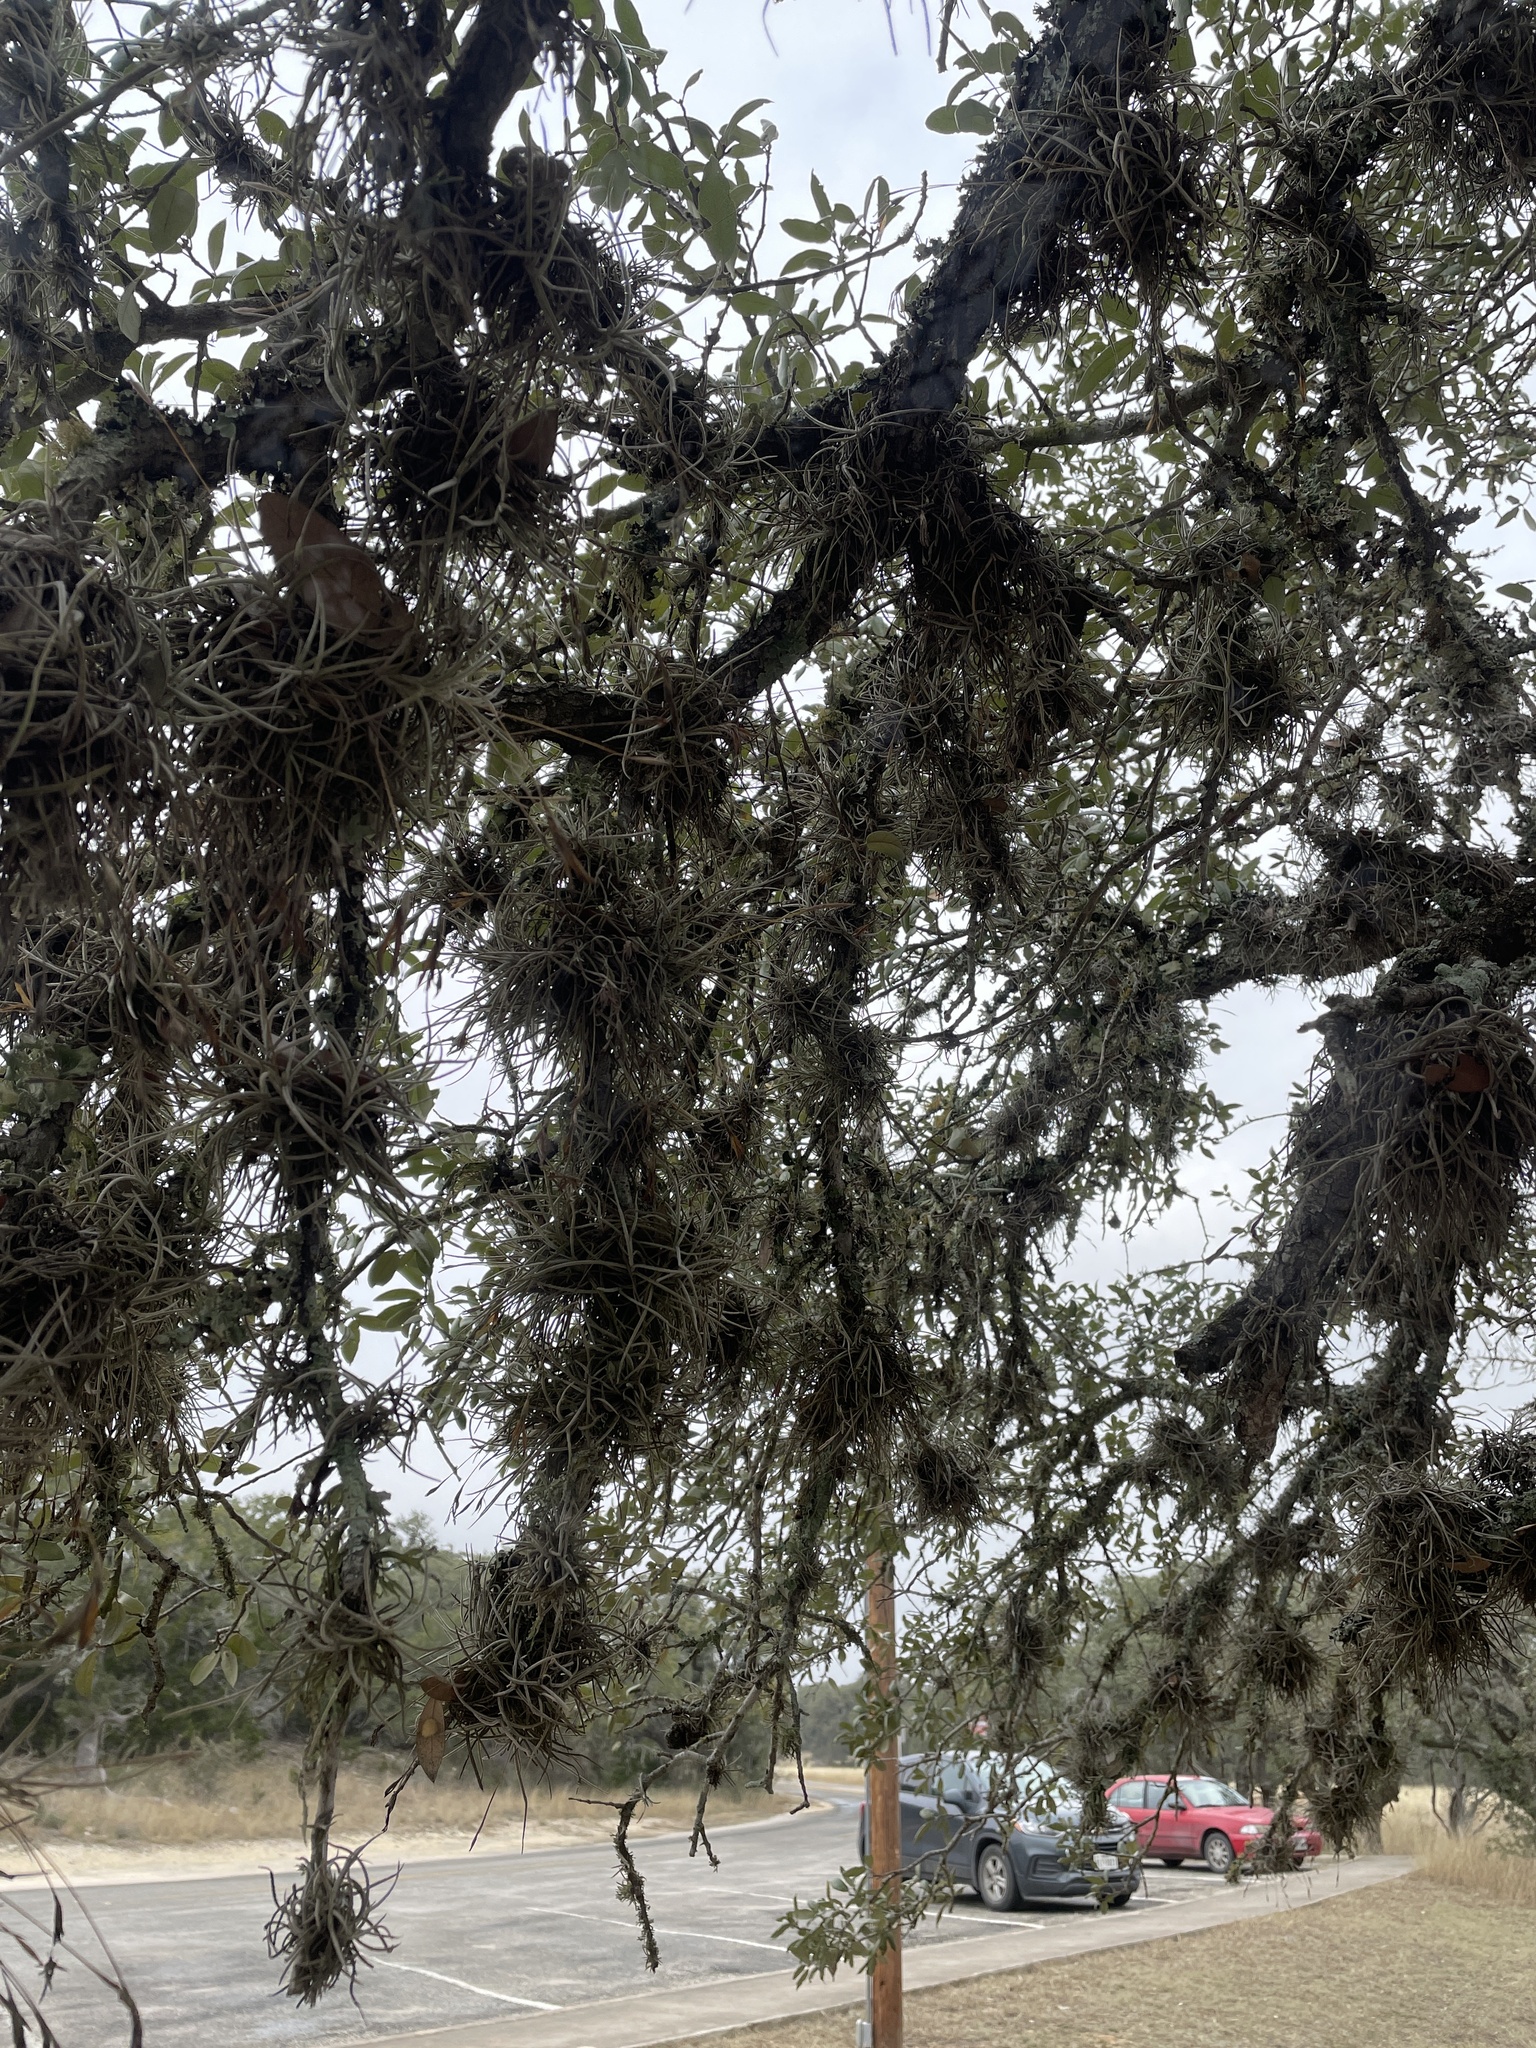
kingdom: Plantae
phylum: Tracheophyta
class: Liliopsida
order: Poales
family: Bromeliaceae
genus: Tillandsia
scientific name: Tillandsia recurvata
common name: Small ballmoss
